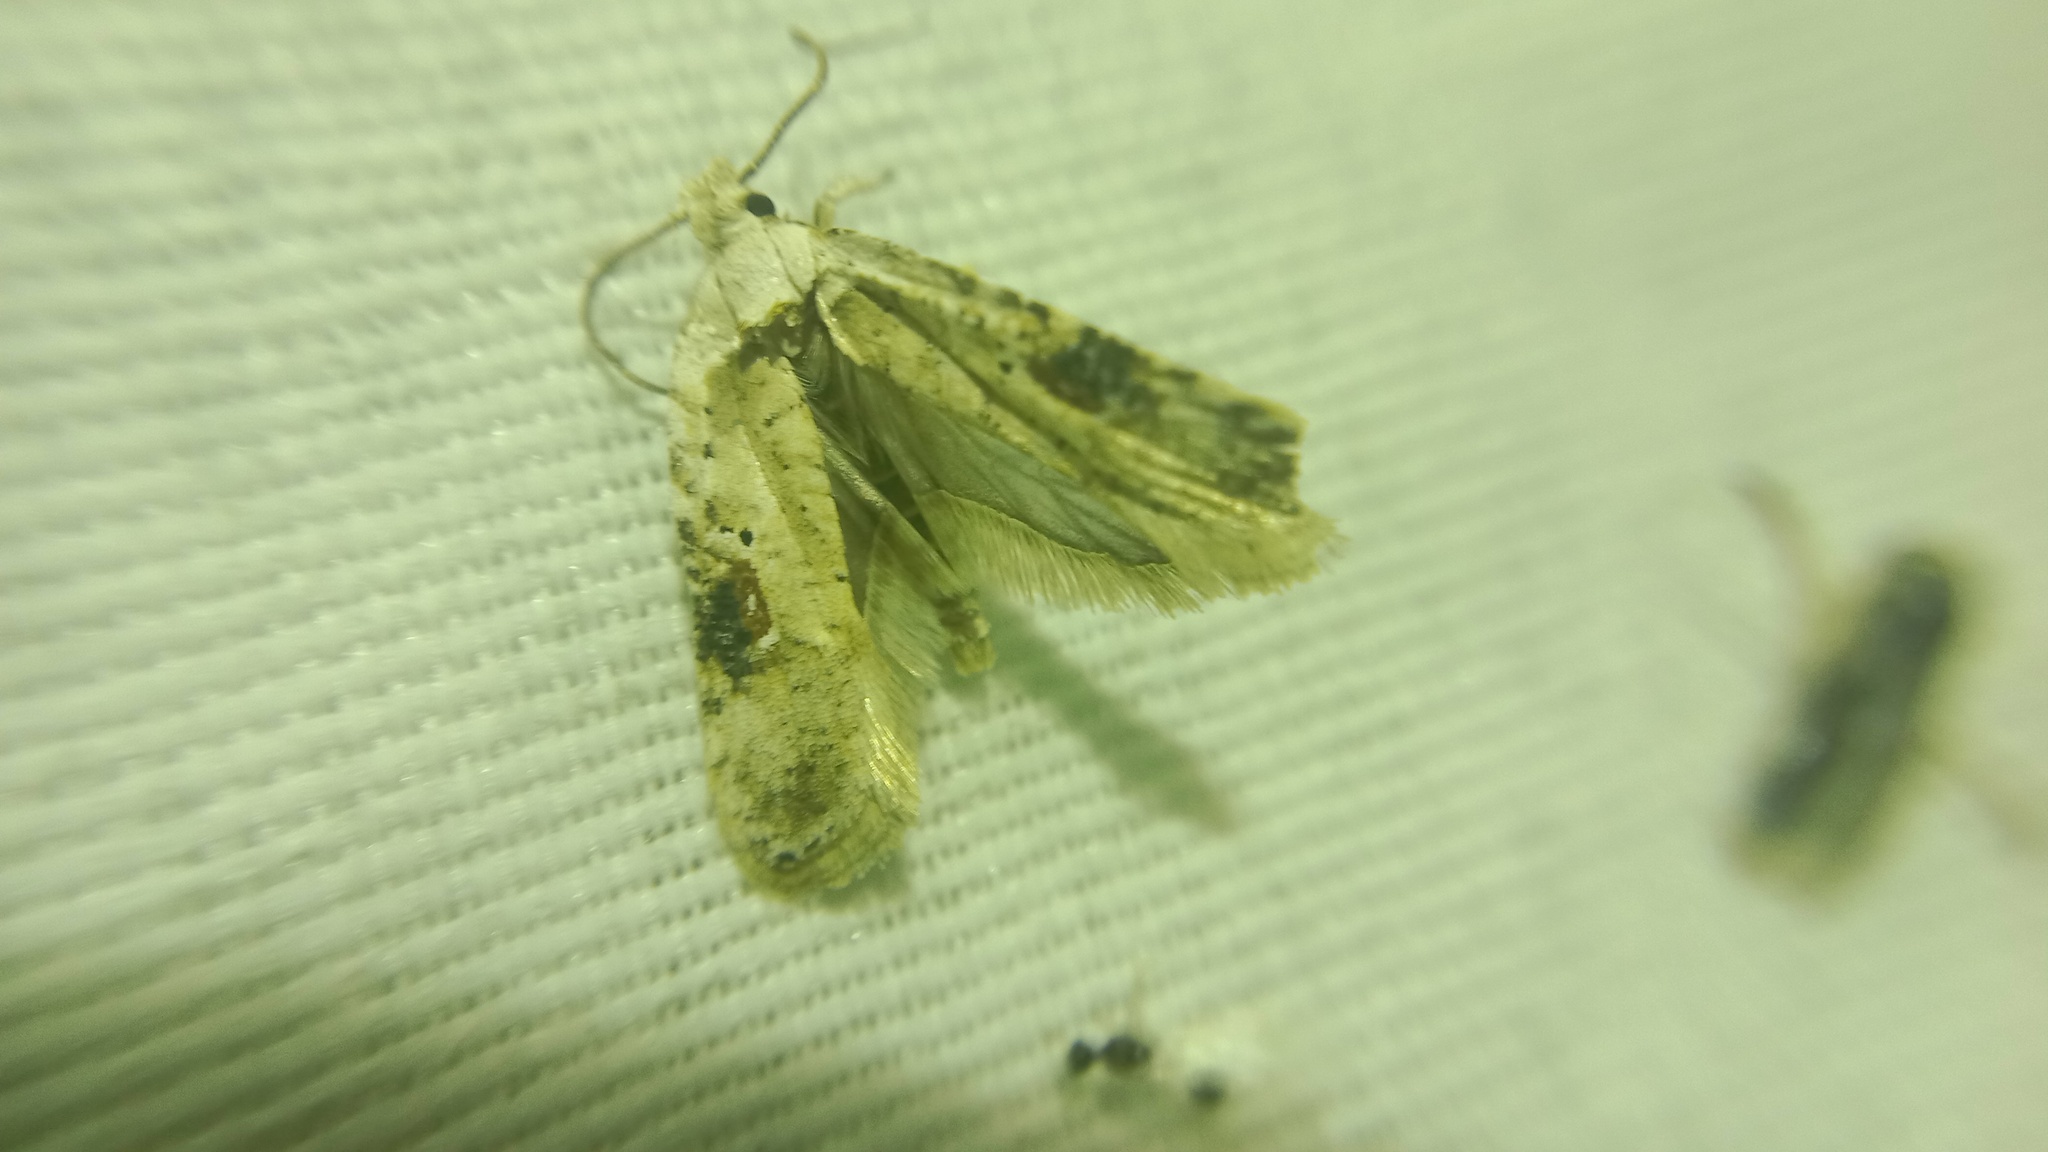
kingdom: Animalia
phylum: Arthropoda
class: Insecta
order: Lepidoptera
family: Depressariidae
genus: Agonopterix
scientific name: Agonopterix alstroemeriana
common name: Moth
